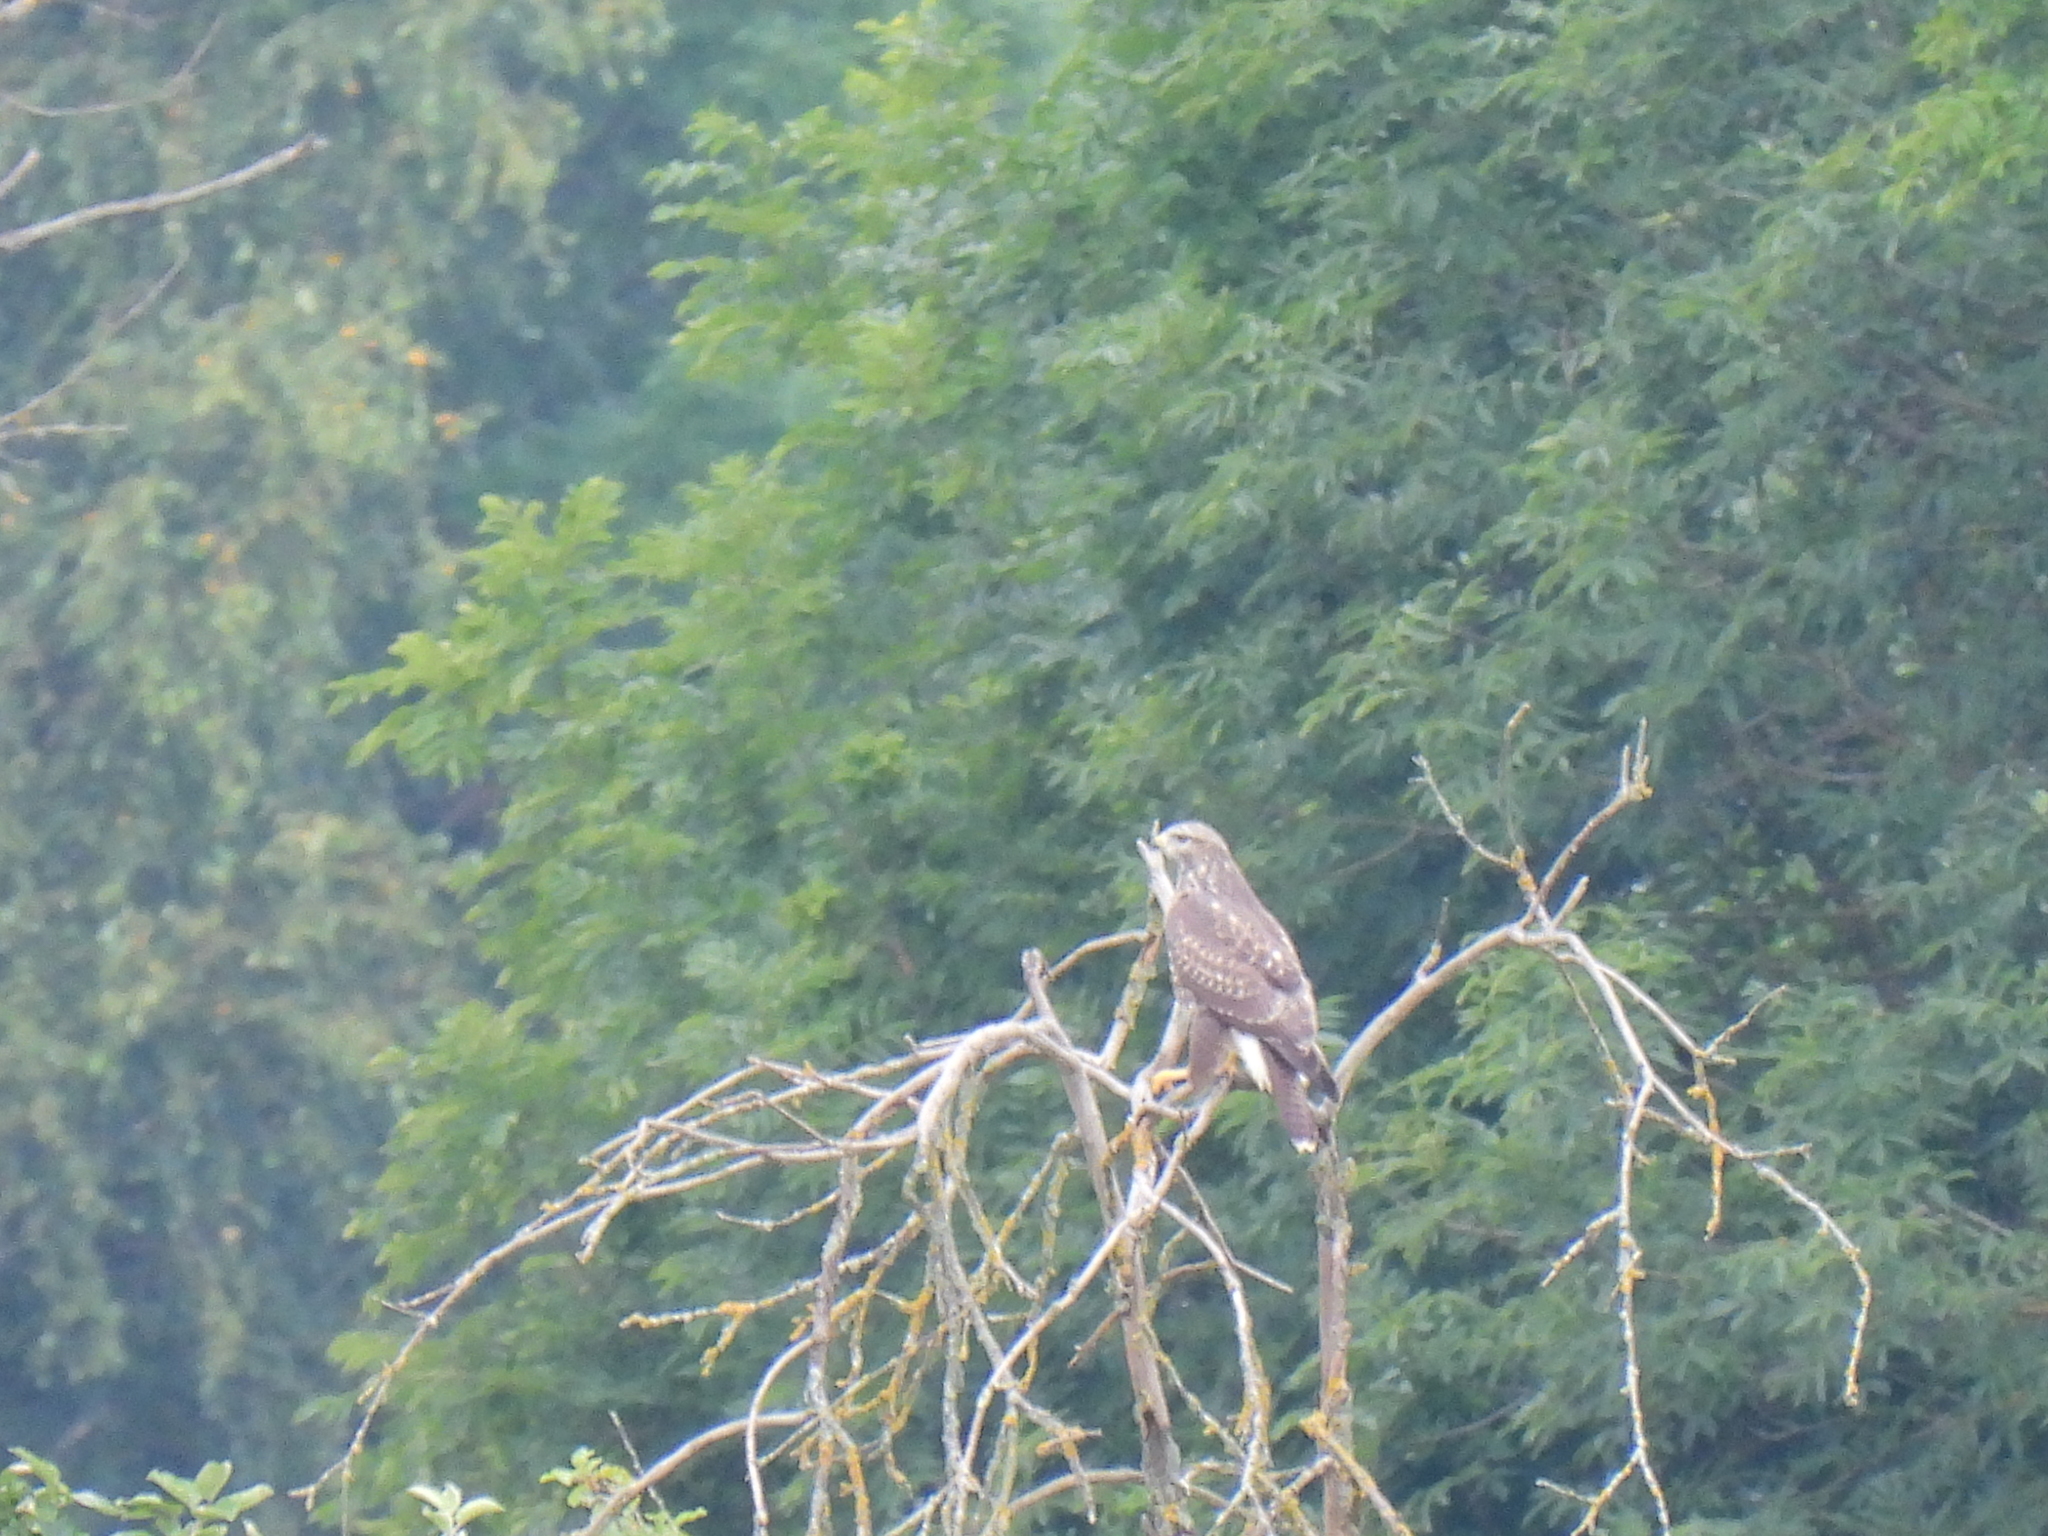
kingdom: Animalia
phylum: Chordata
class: Aves
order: Accipitriformes
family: Accipitridae
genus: Buteo
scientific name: Buteo buteo
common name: Common buzzard
